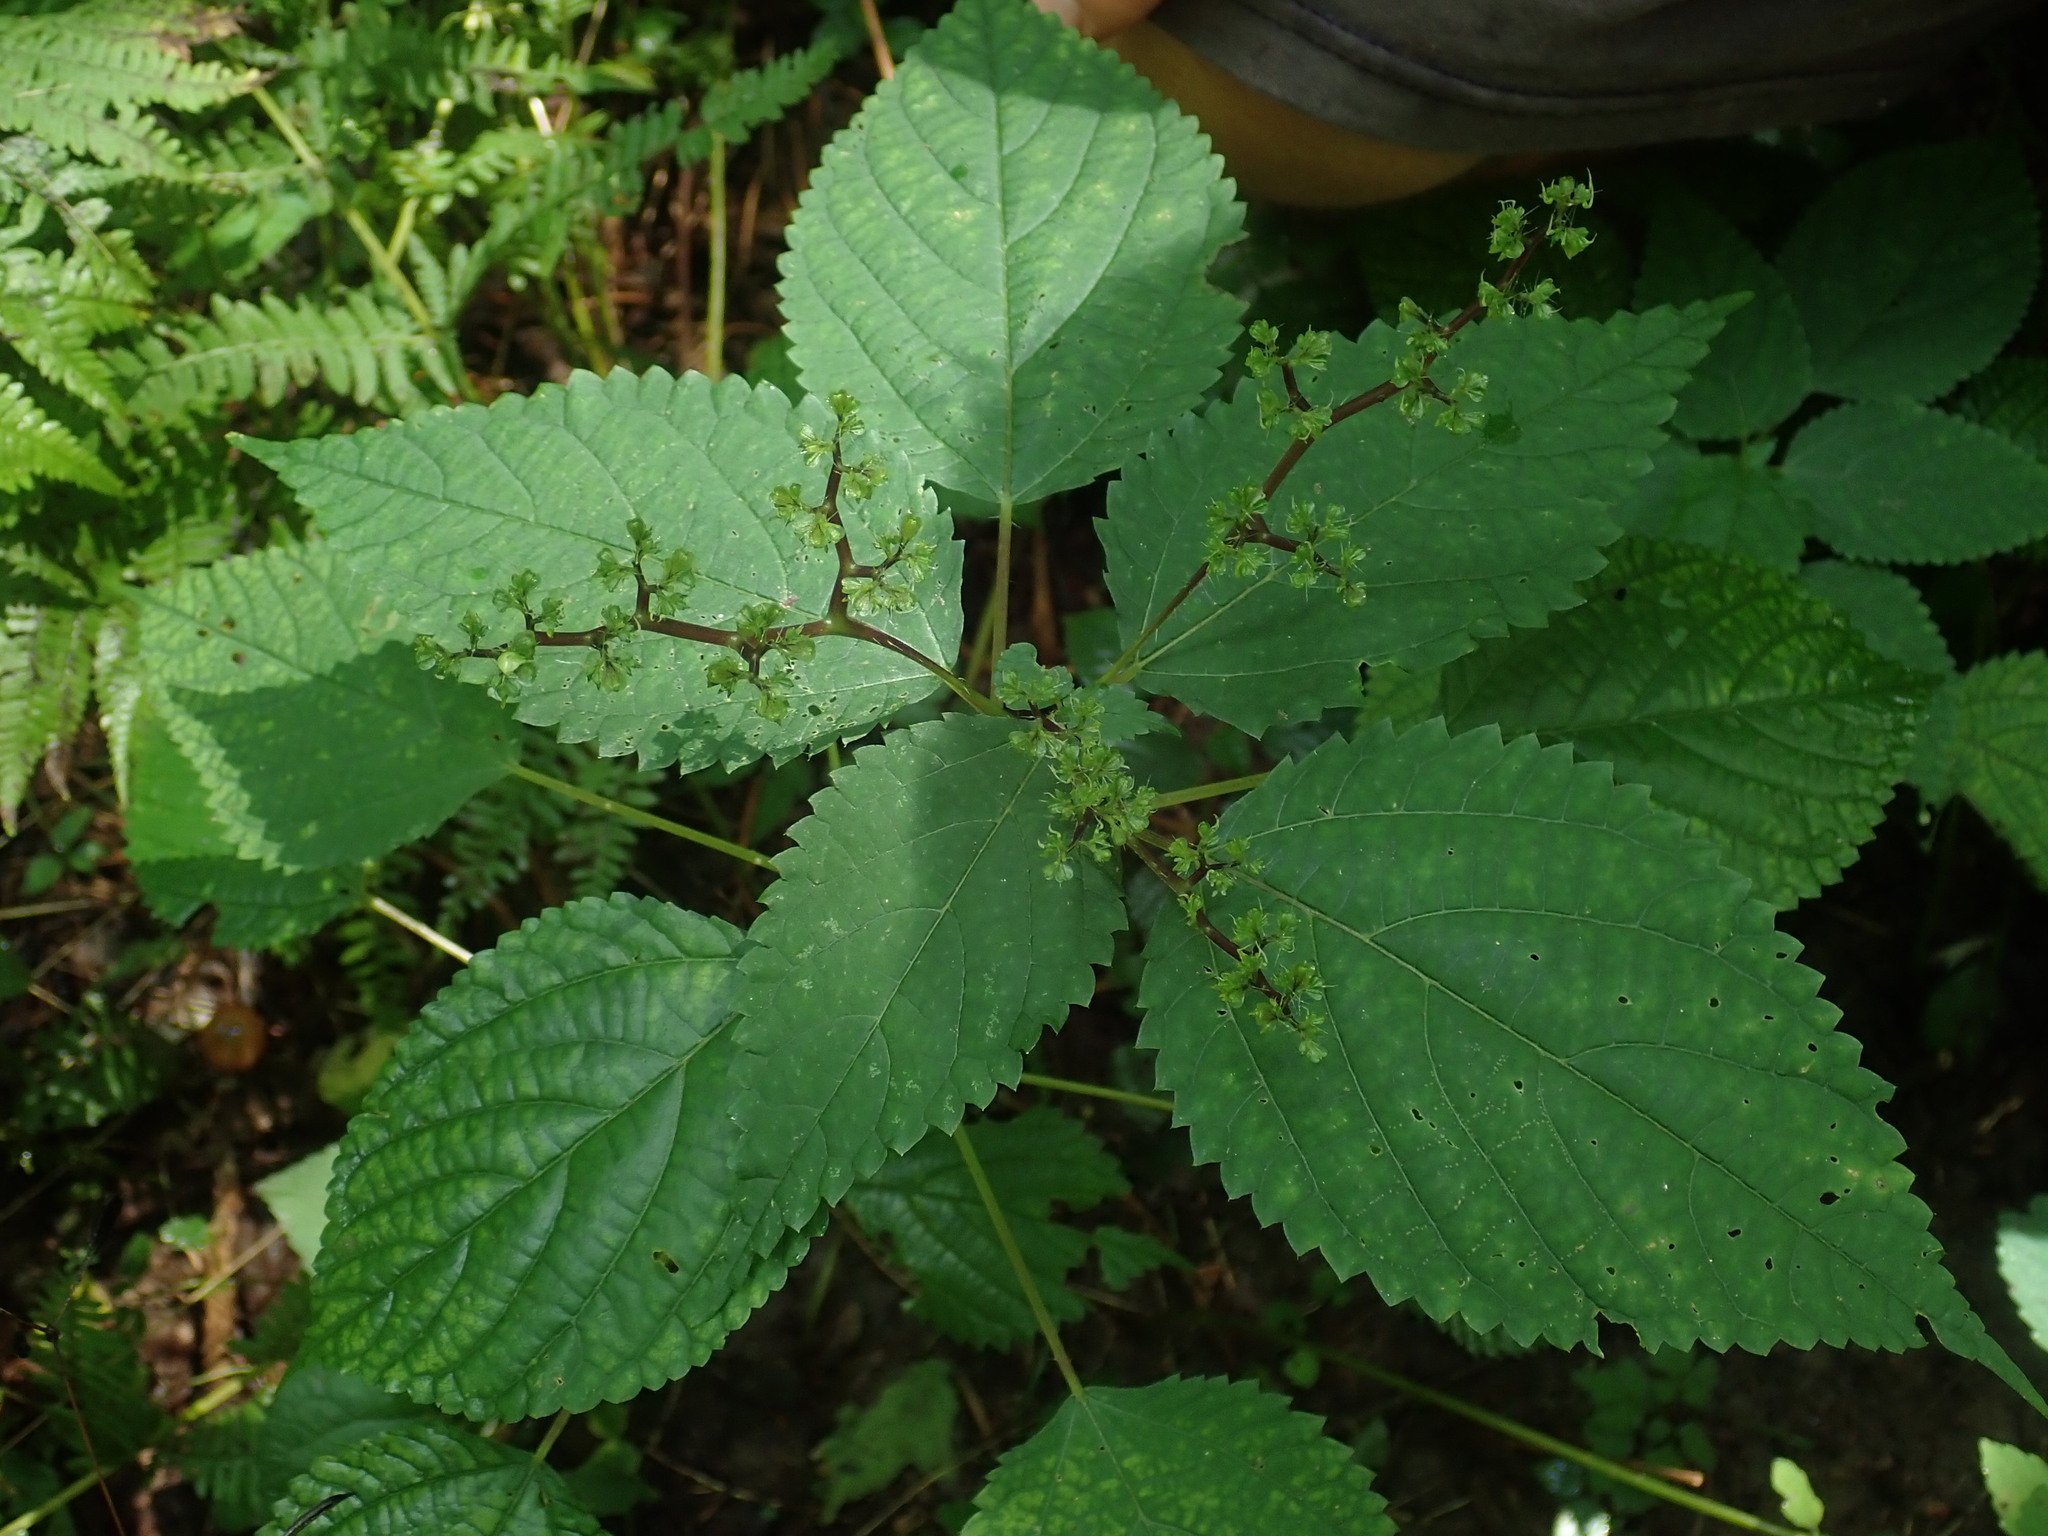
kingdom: Plantae
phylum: Tracheophyta
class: Magnoliopsida
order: Rosales
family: Urticaceae
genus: Laportea
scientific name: Laportea canadensis
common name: Canada nettle
